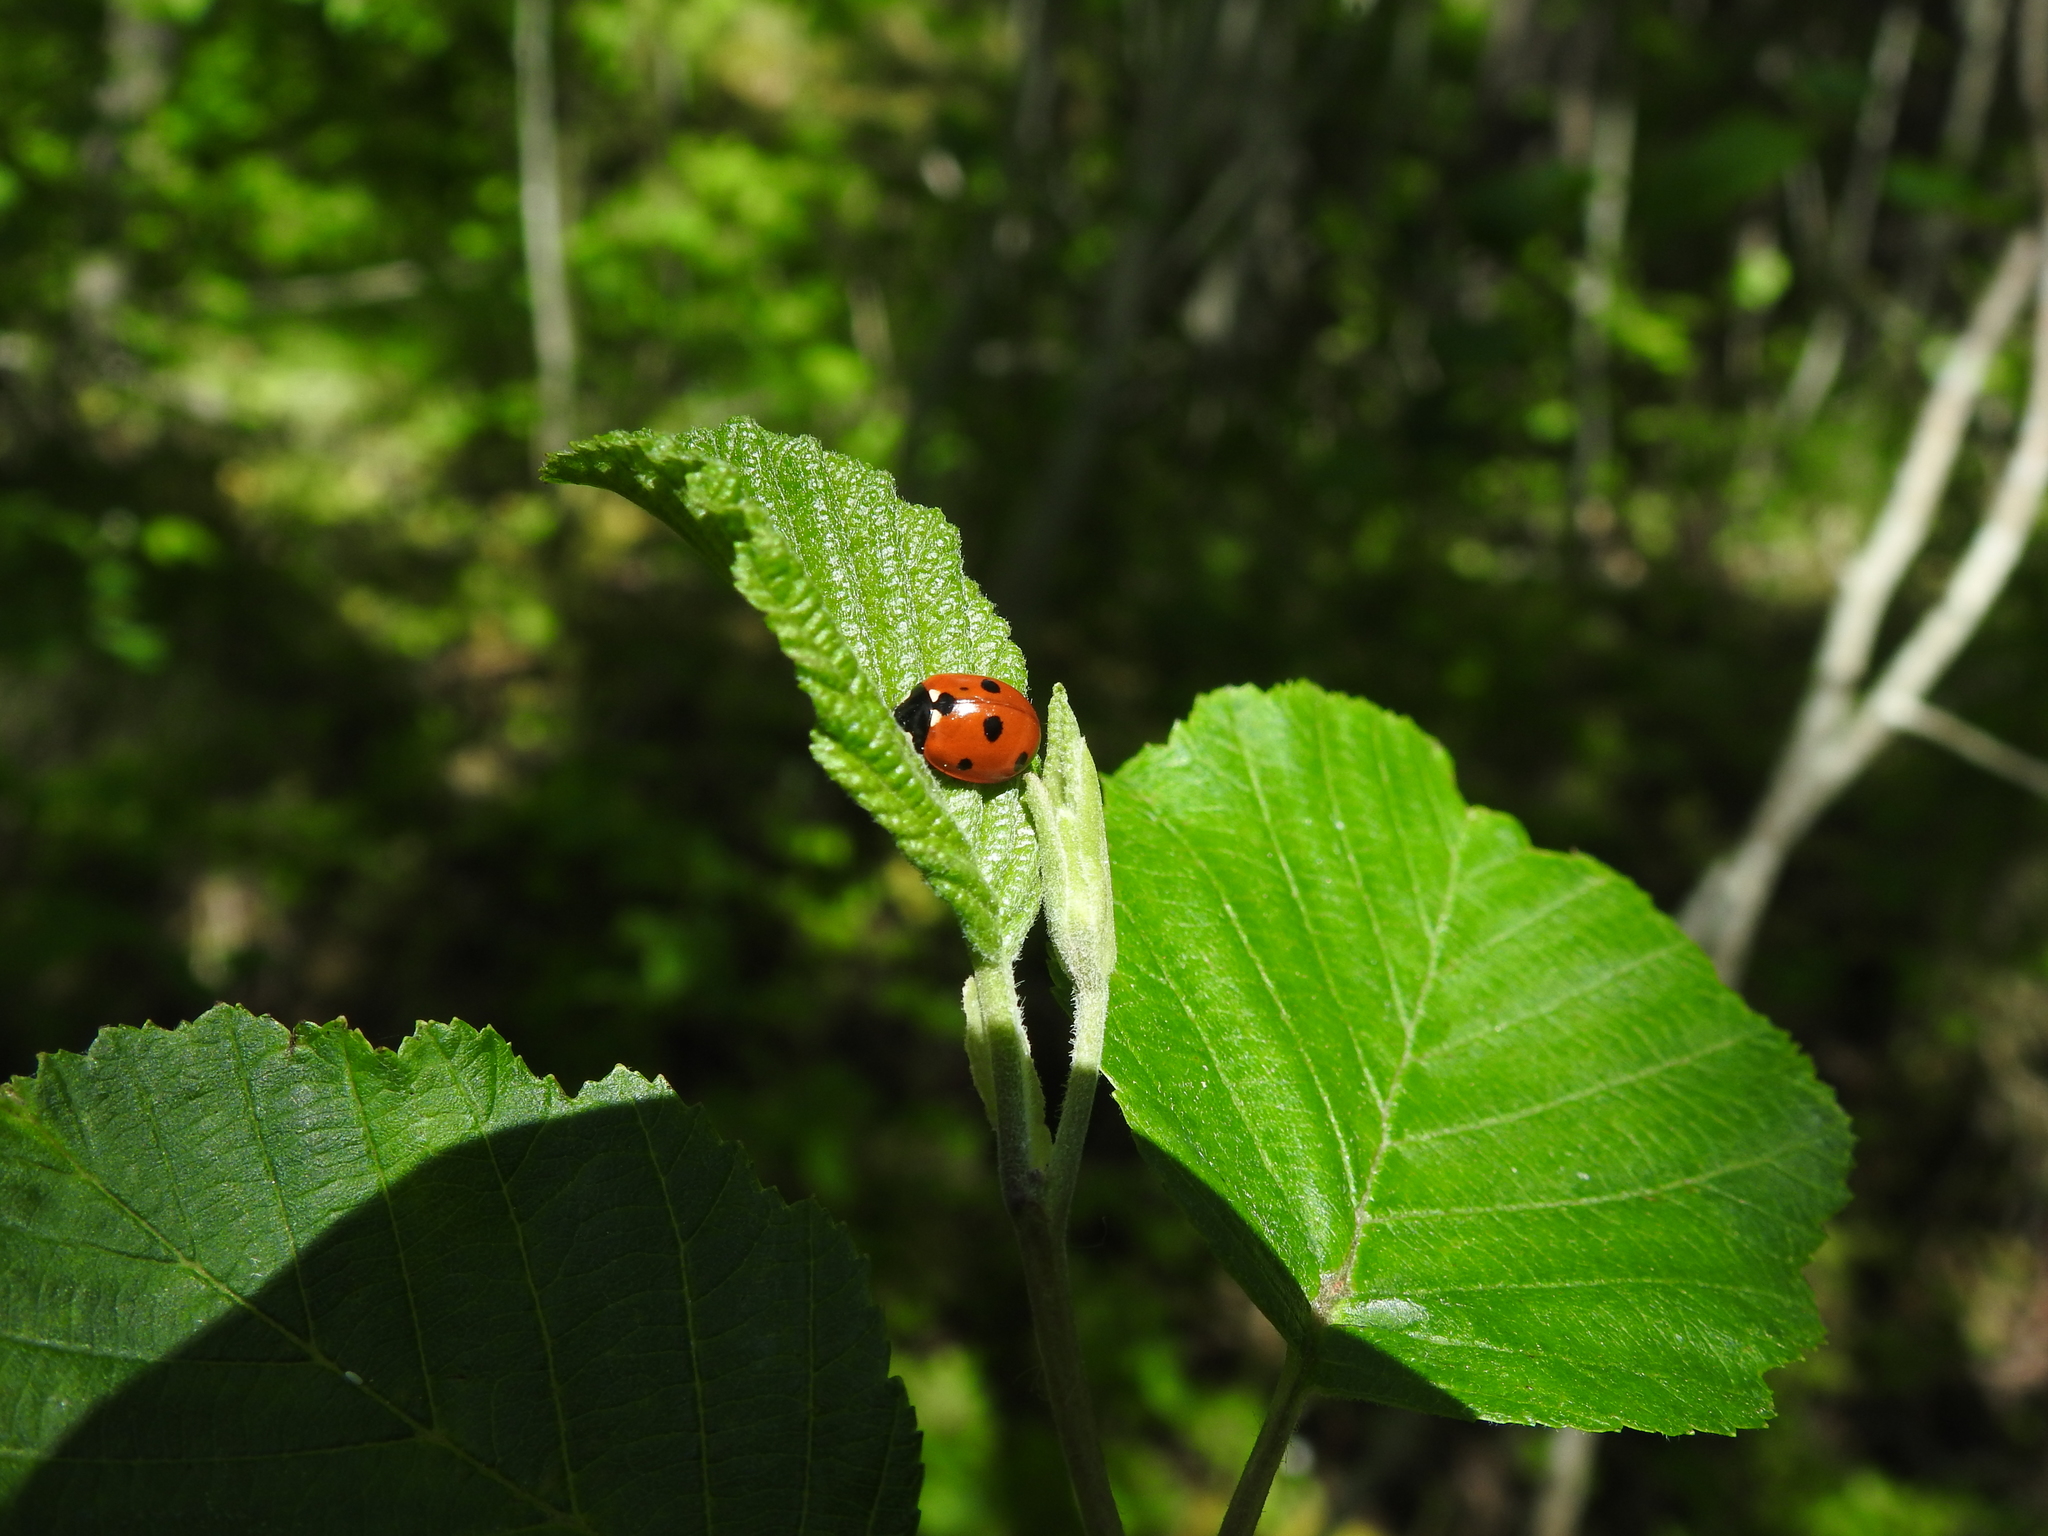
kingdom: Animalia
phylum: Arthropoda
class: Insecta
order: Coleoptera
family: Coccinellidae
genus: Coccinella
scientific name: Coccinella septempunctata
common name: Sevenspotted lady beetle
